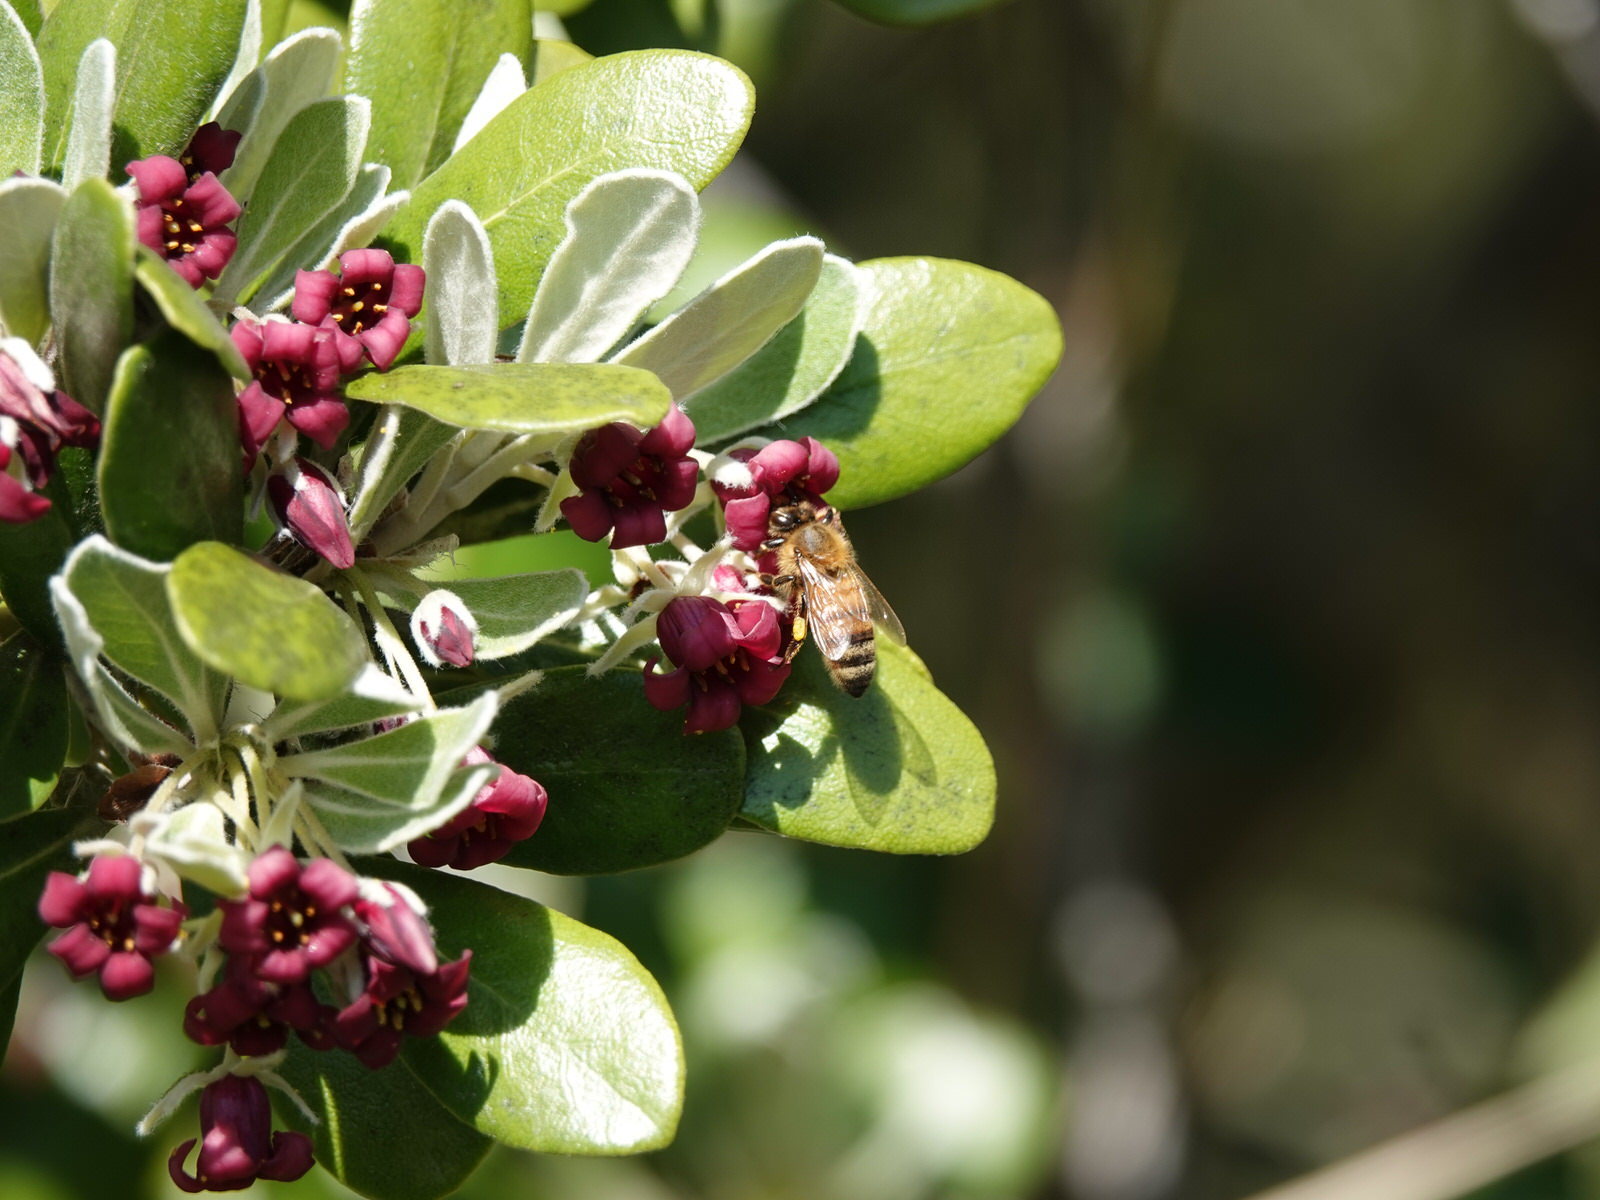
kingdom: Plantae
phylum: Tracheophyta
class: Magnoliopsida
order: Apiales
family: Pittosporaceae
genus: Pittosporum
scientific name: Pittosporum crassifolium
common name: Karo
